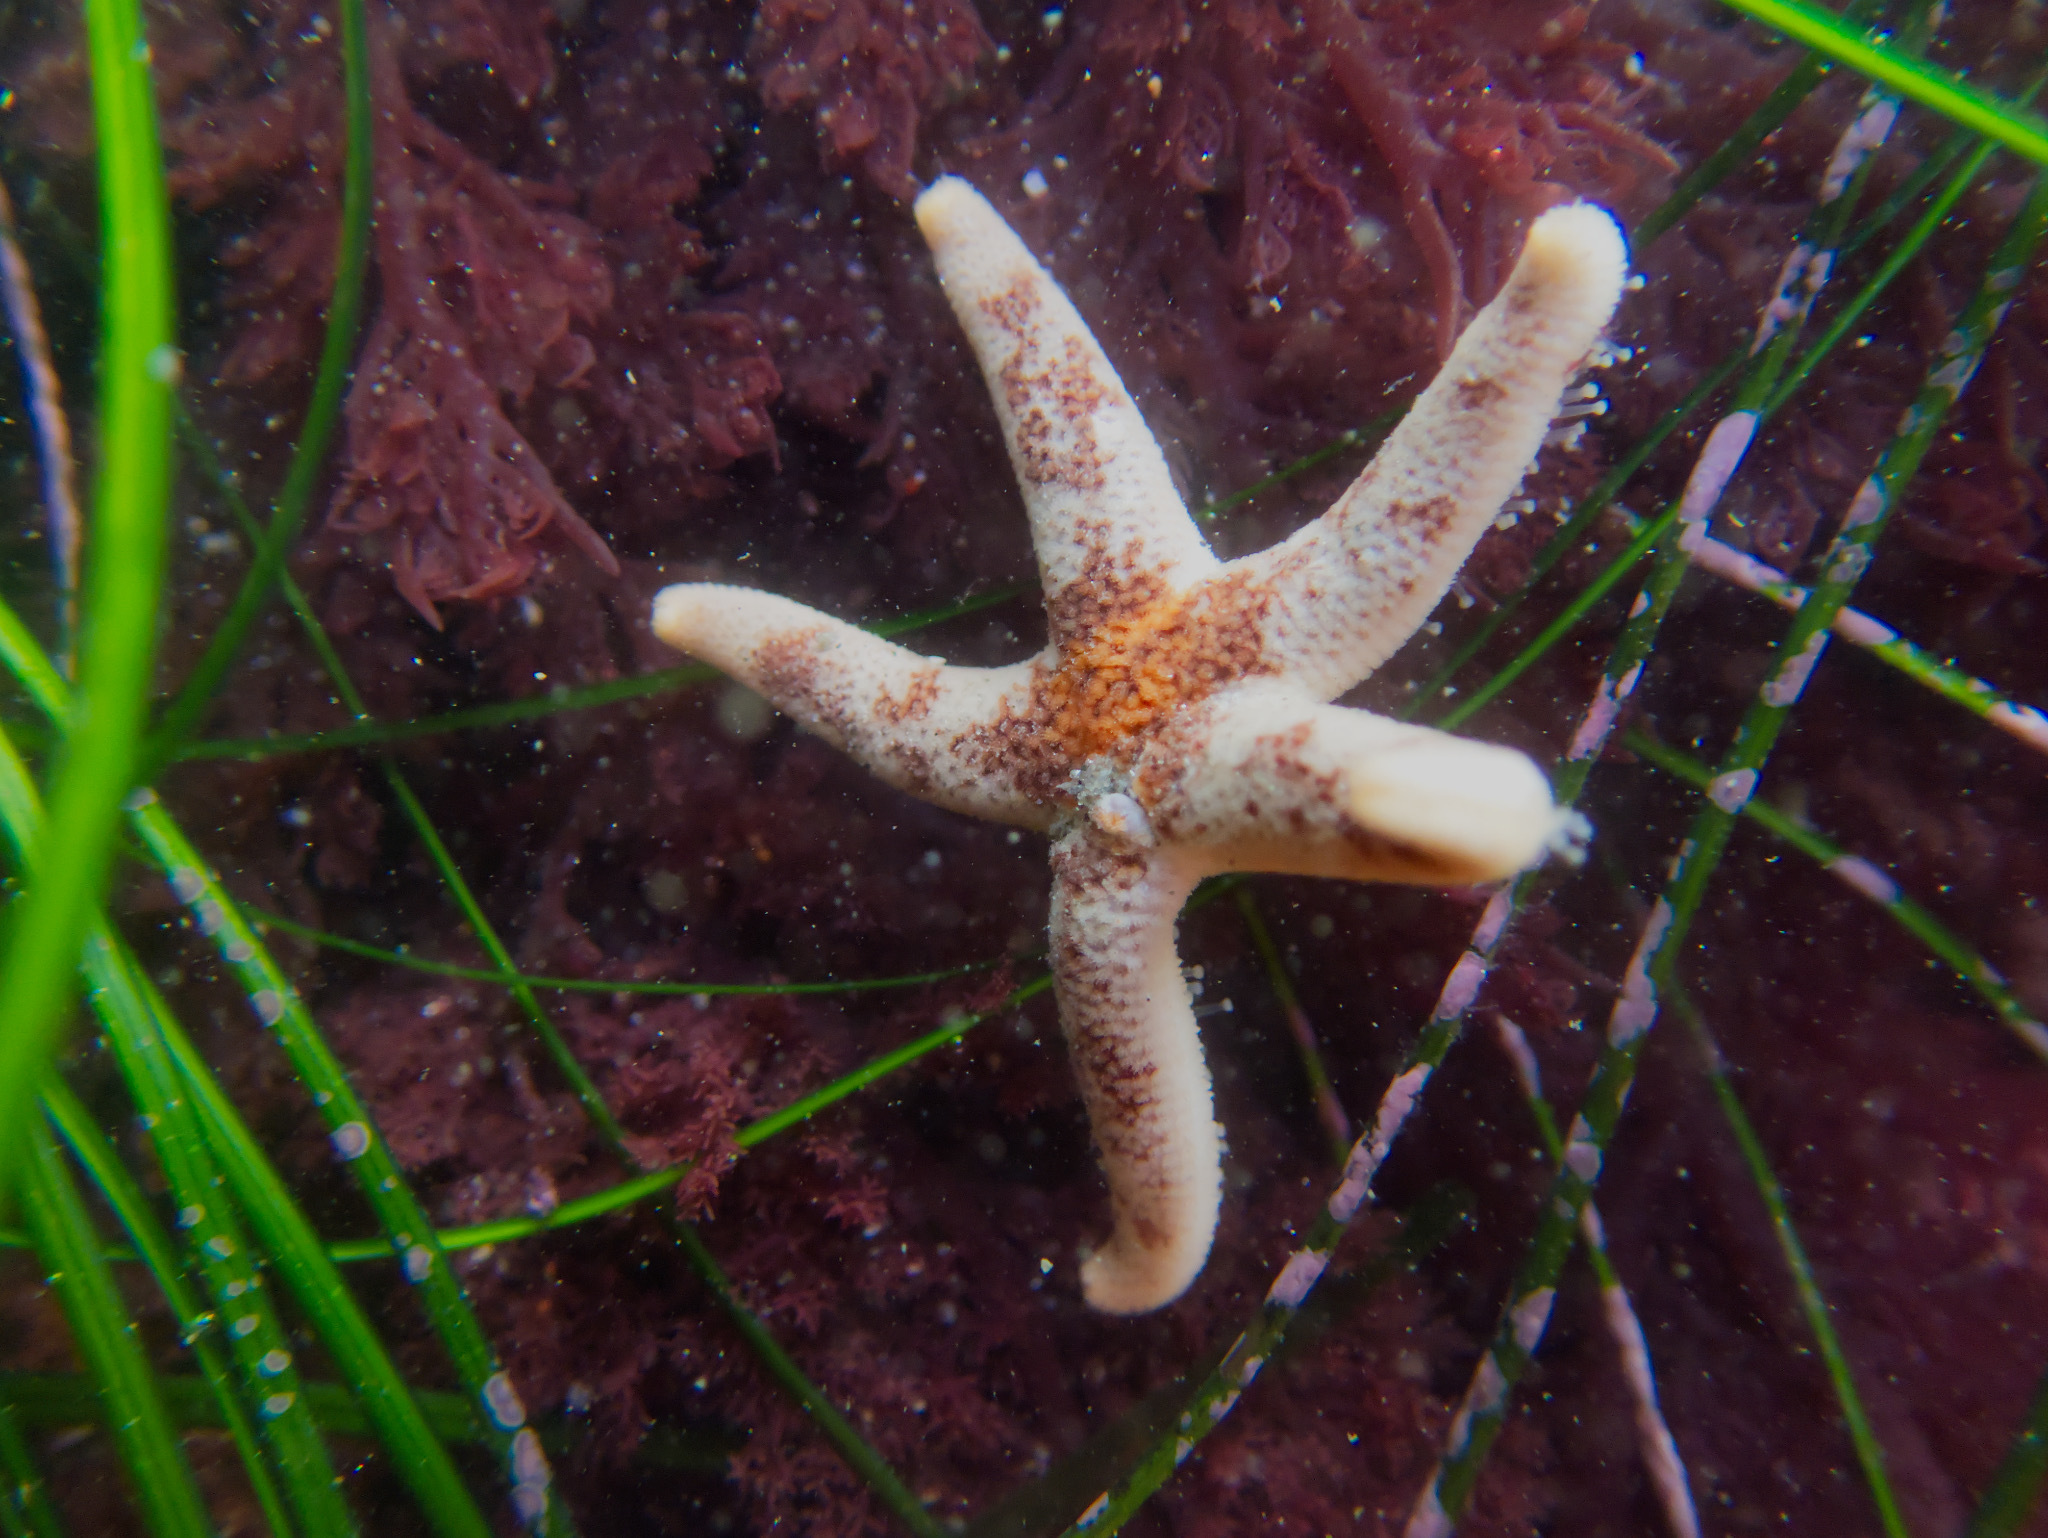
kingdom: Animalia
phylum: Echinodermata
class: Asteroidea
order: Spinulosida
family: Echinasteridae
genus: Henricia
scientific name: Henricia pumila
